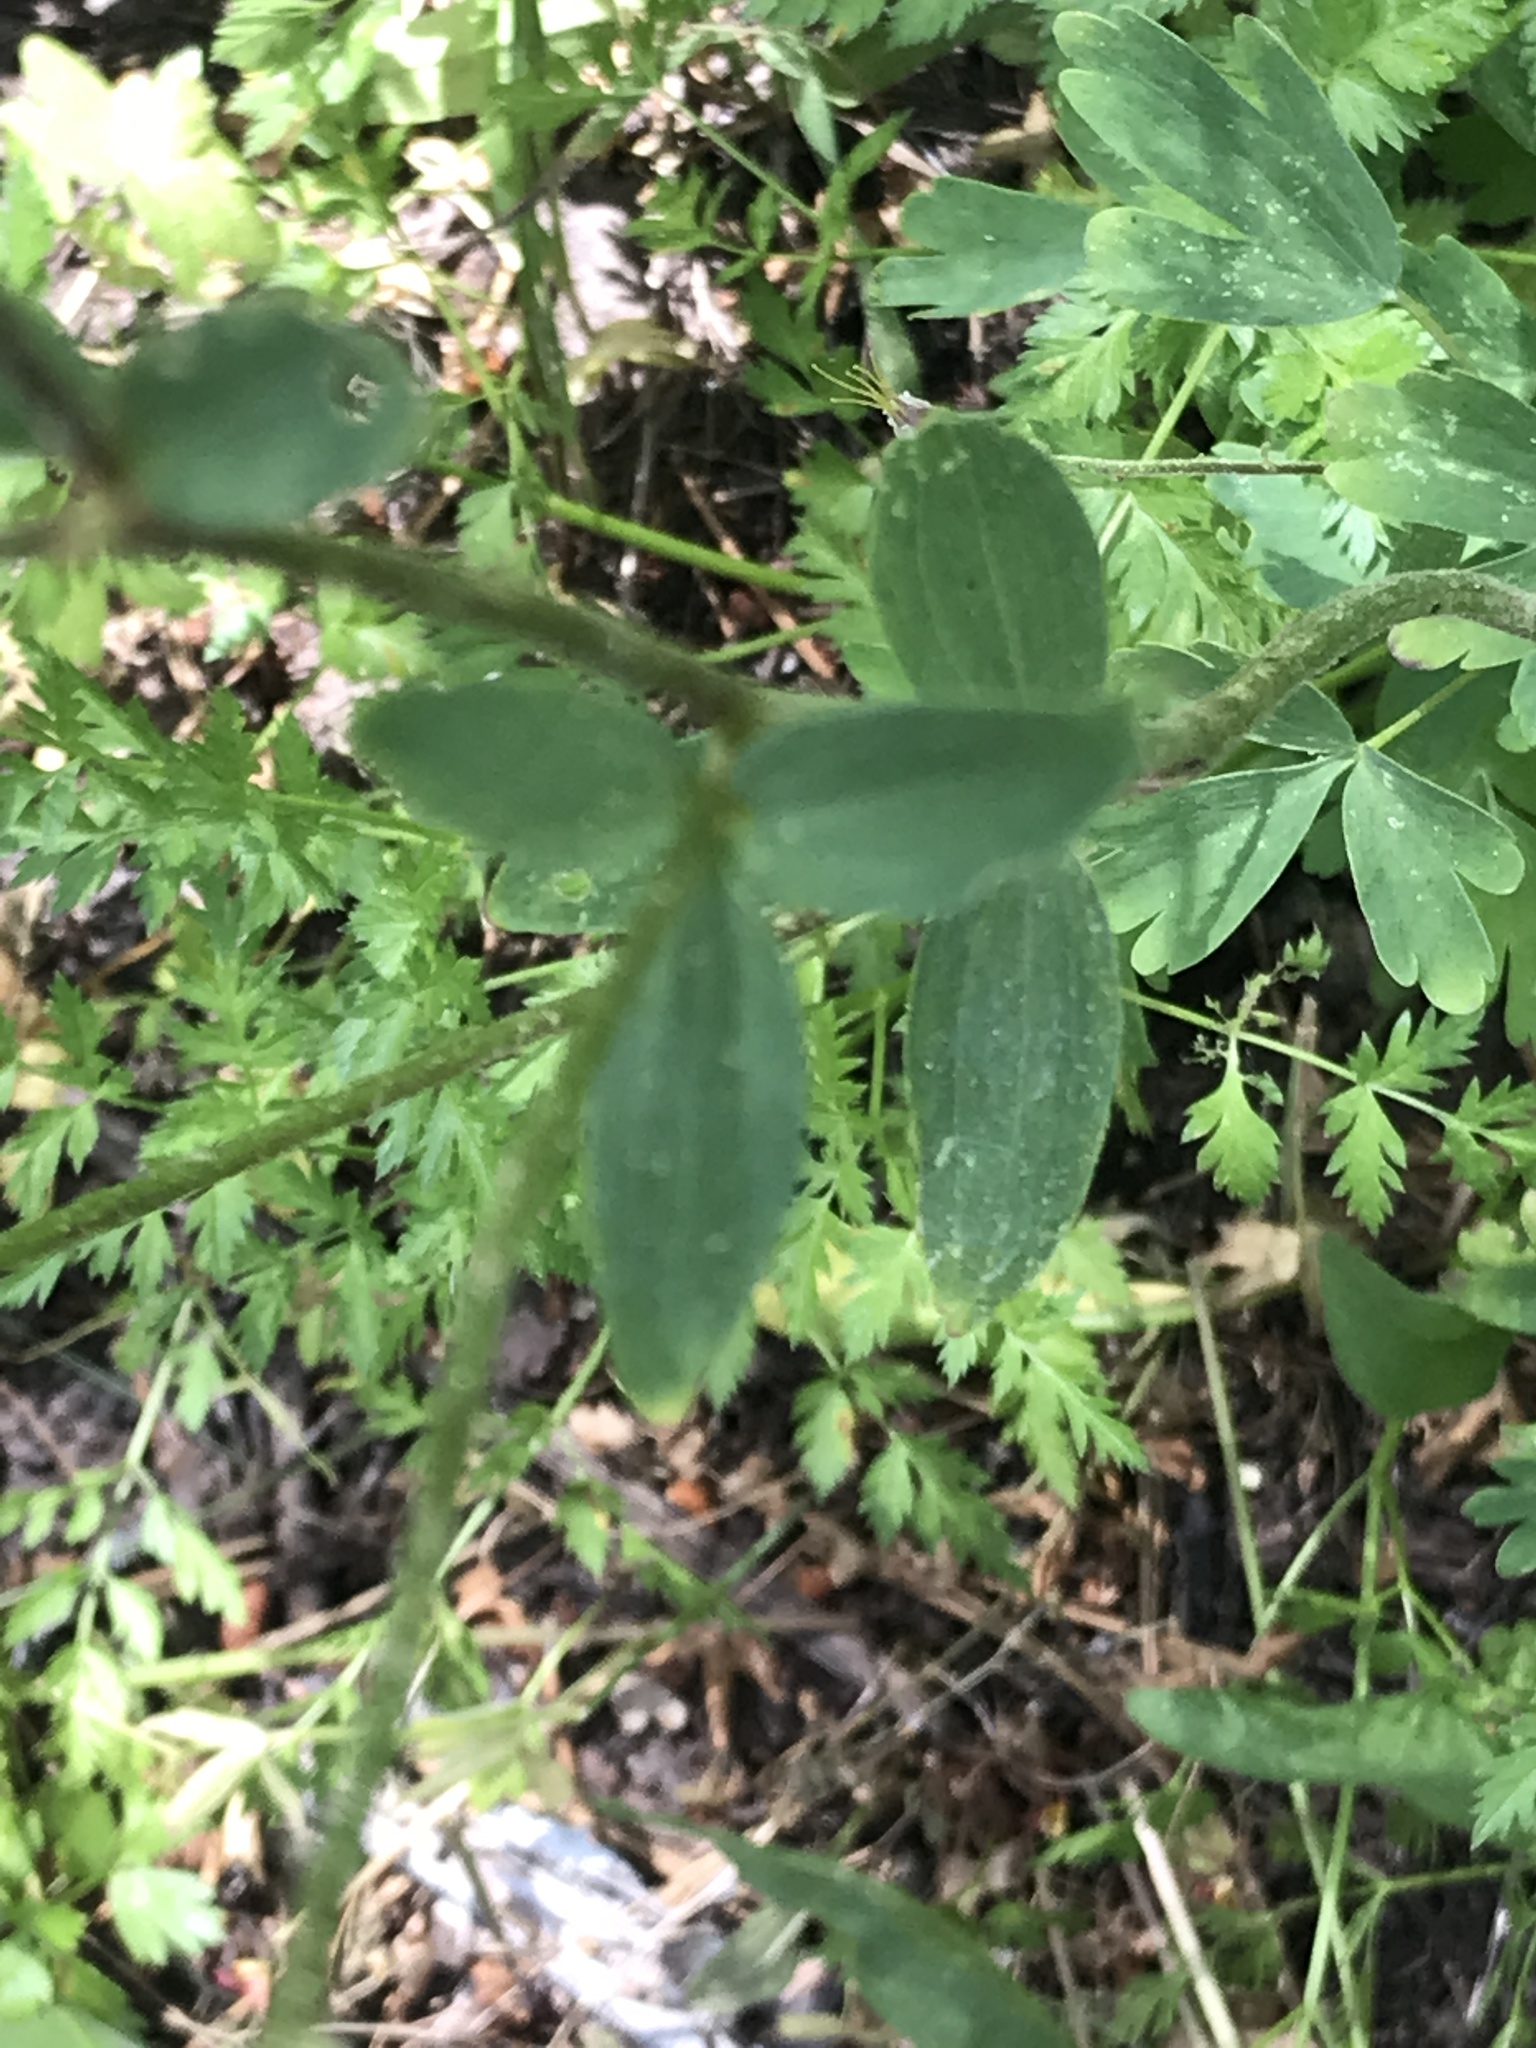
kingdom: Plantae
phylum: Tracheophyta
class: Magnoliopsida
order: Ranunculales
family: Ranunculaceae
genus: Aquilegia
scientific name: Aquilegia formosa
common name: Sitka columbine
